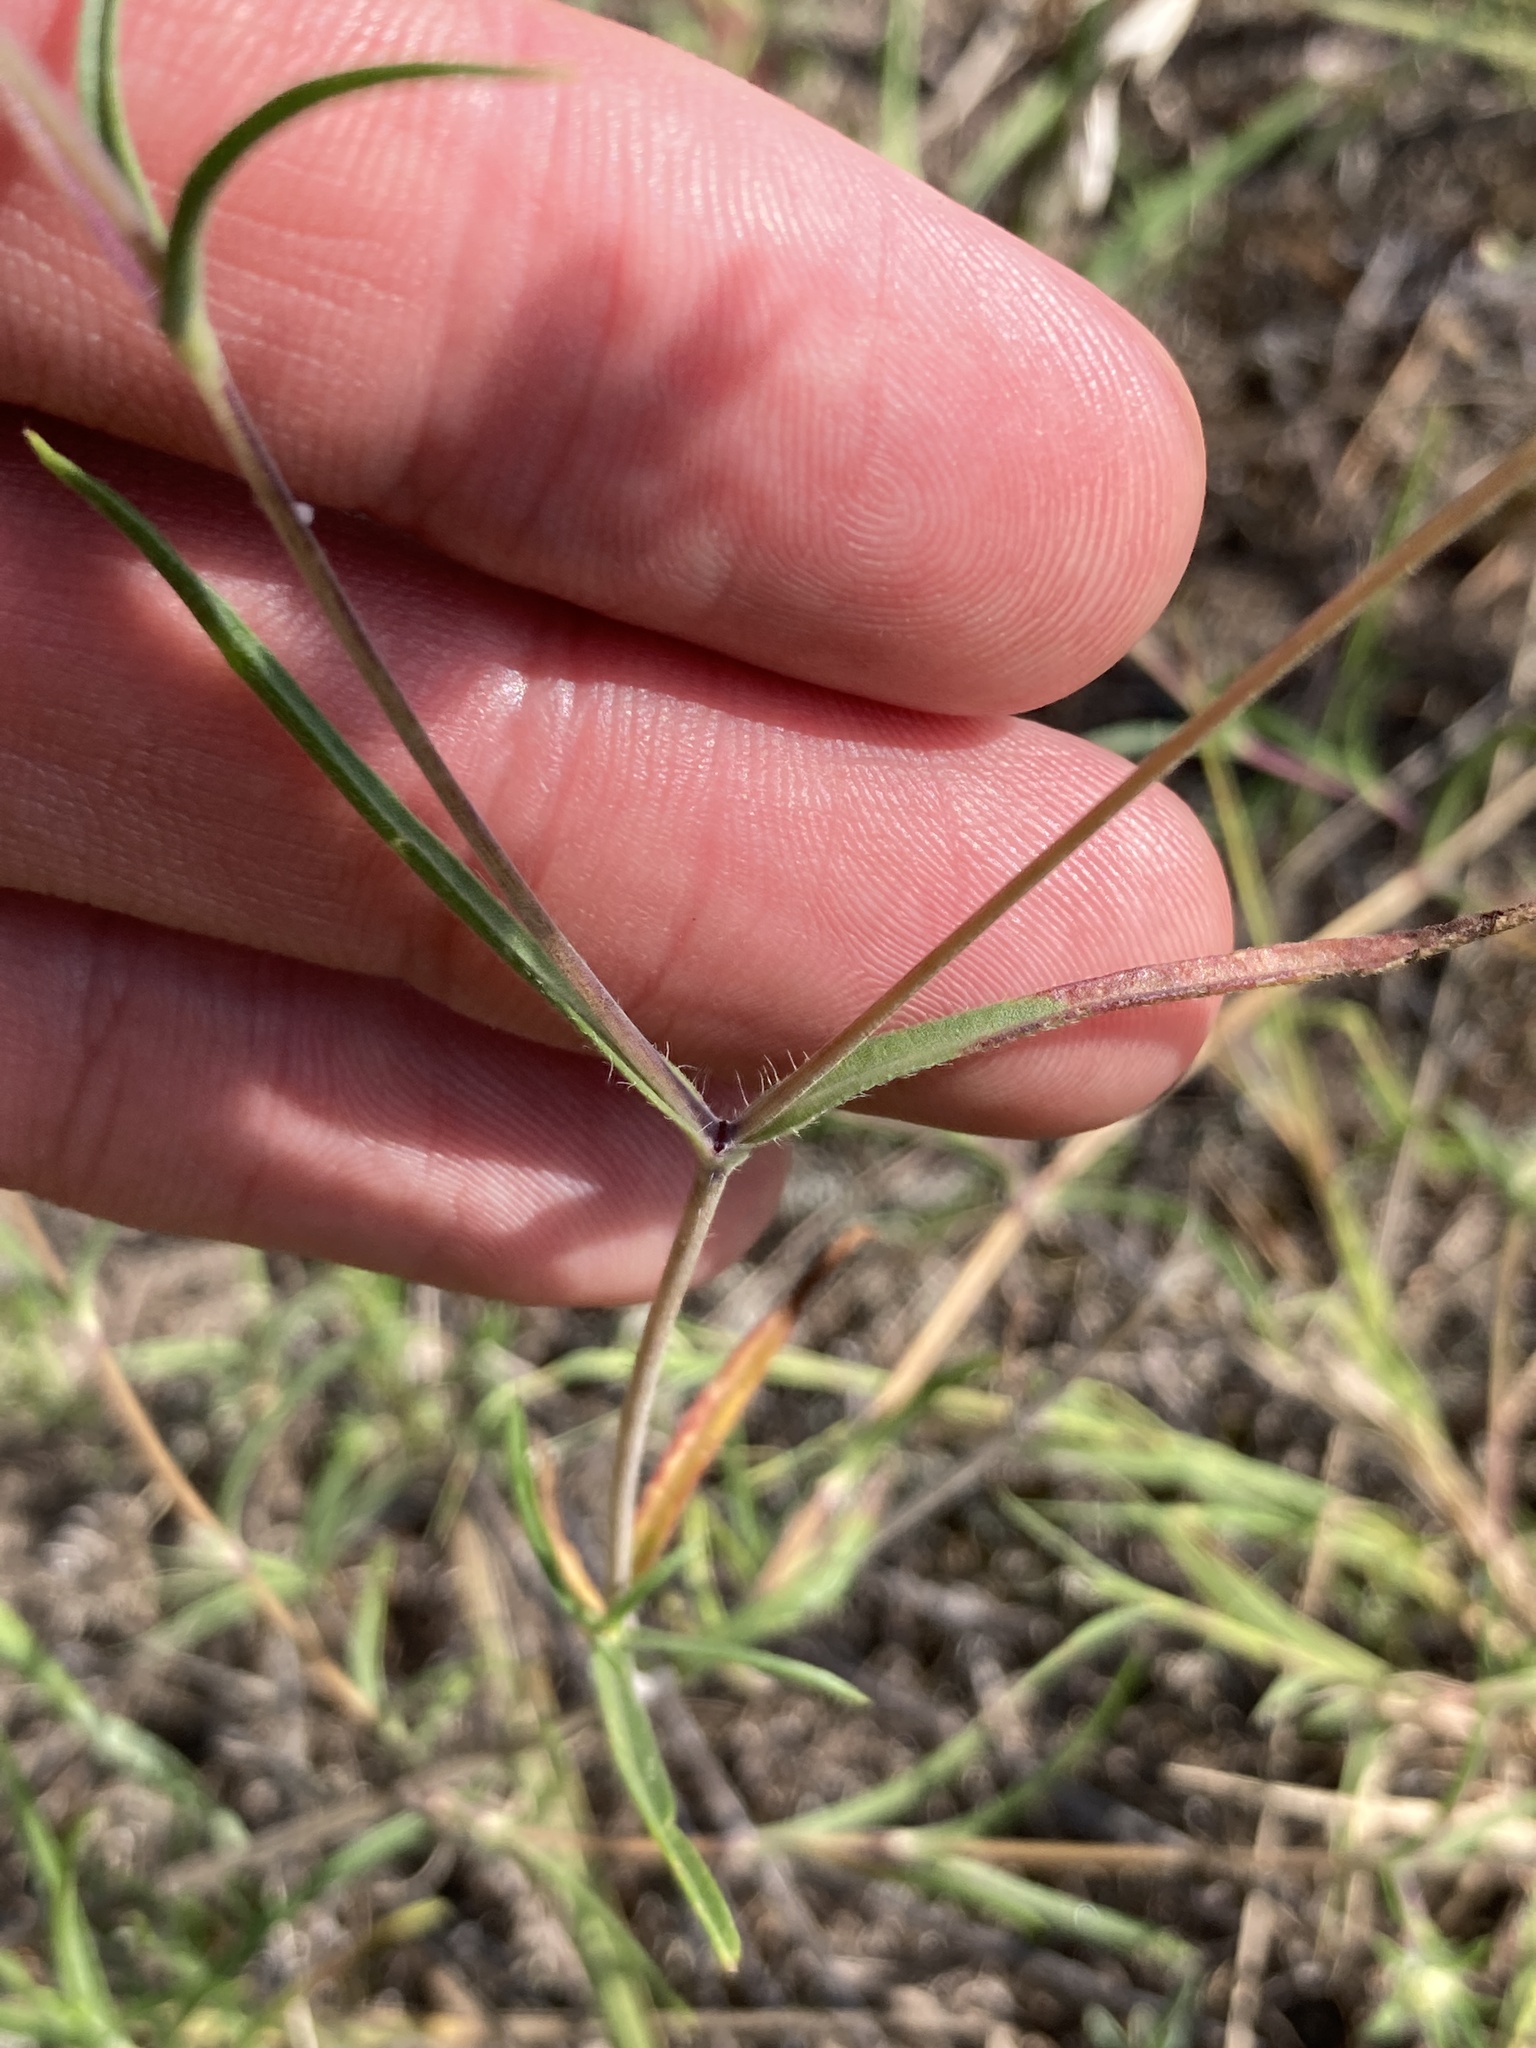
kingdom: Plantae
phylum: Tracheophyta
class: Magnoliopsida
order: Dipsacales
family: Caprifoliaceae
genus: Lomelosia
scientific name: Lomelosia argentea
